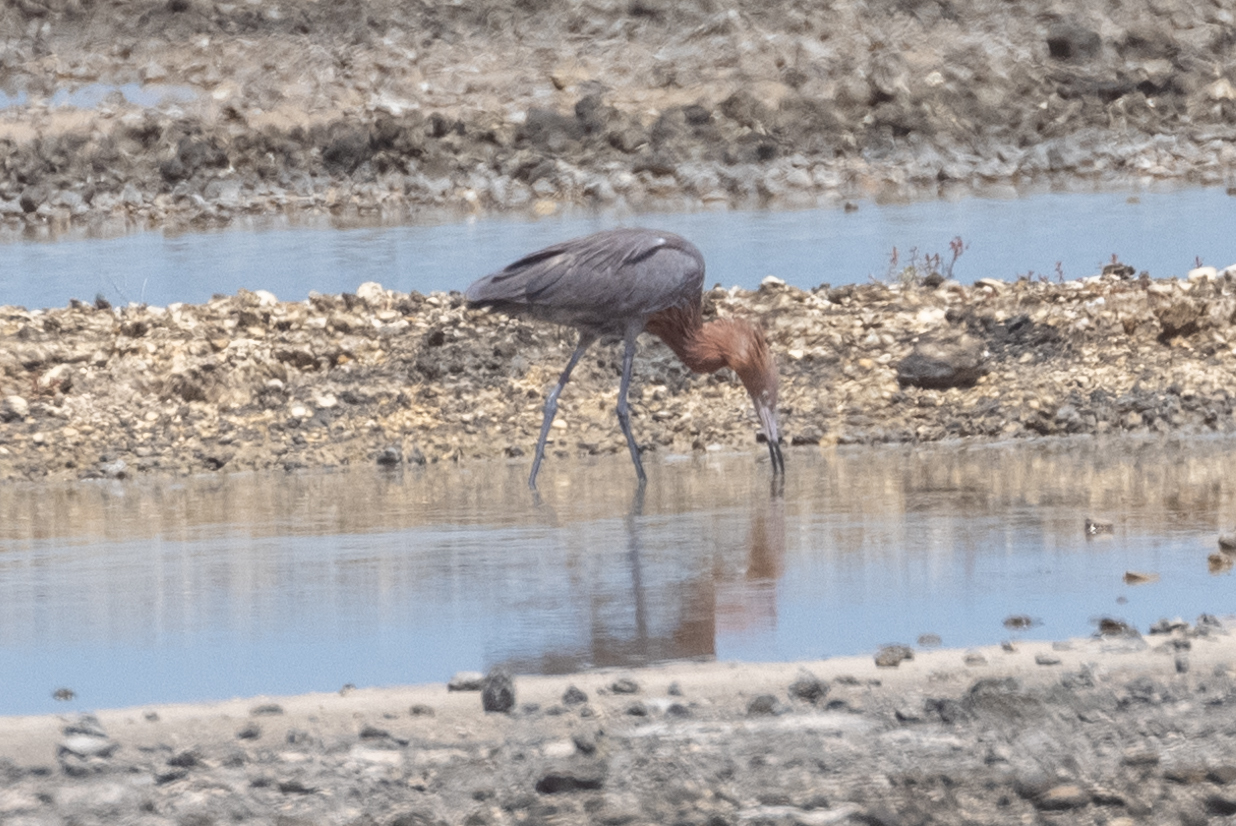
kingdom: Animalia
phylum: Chordata
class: Aves
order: Pelecaniformes
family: Ardeidae
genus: Egretta
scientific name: Egretta rufescens
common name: Reddish egret
